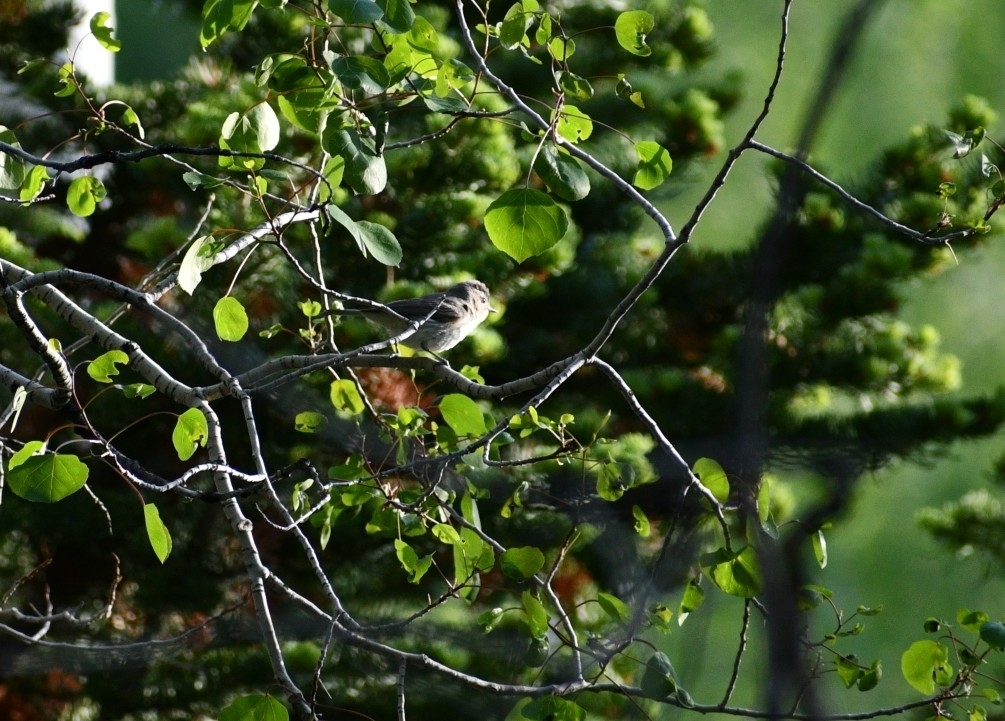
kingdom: Animalia
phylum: Chordata
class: Aves
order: Passeriformes
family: Vireonidae
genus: Vireo
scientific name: Vireo gilvus
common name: Warbling vireo
